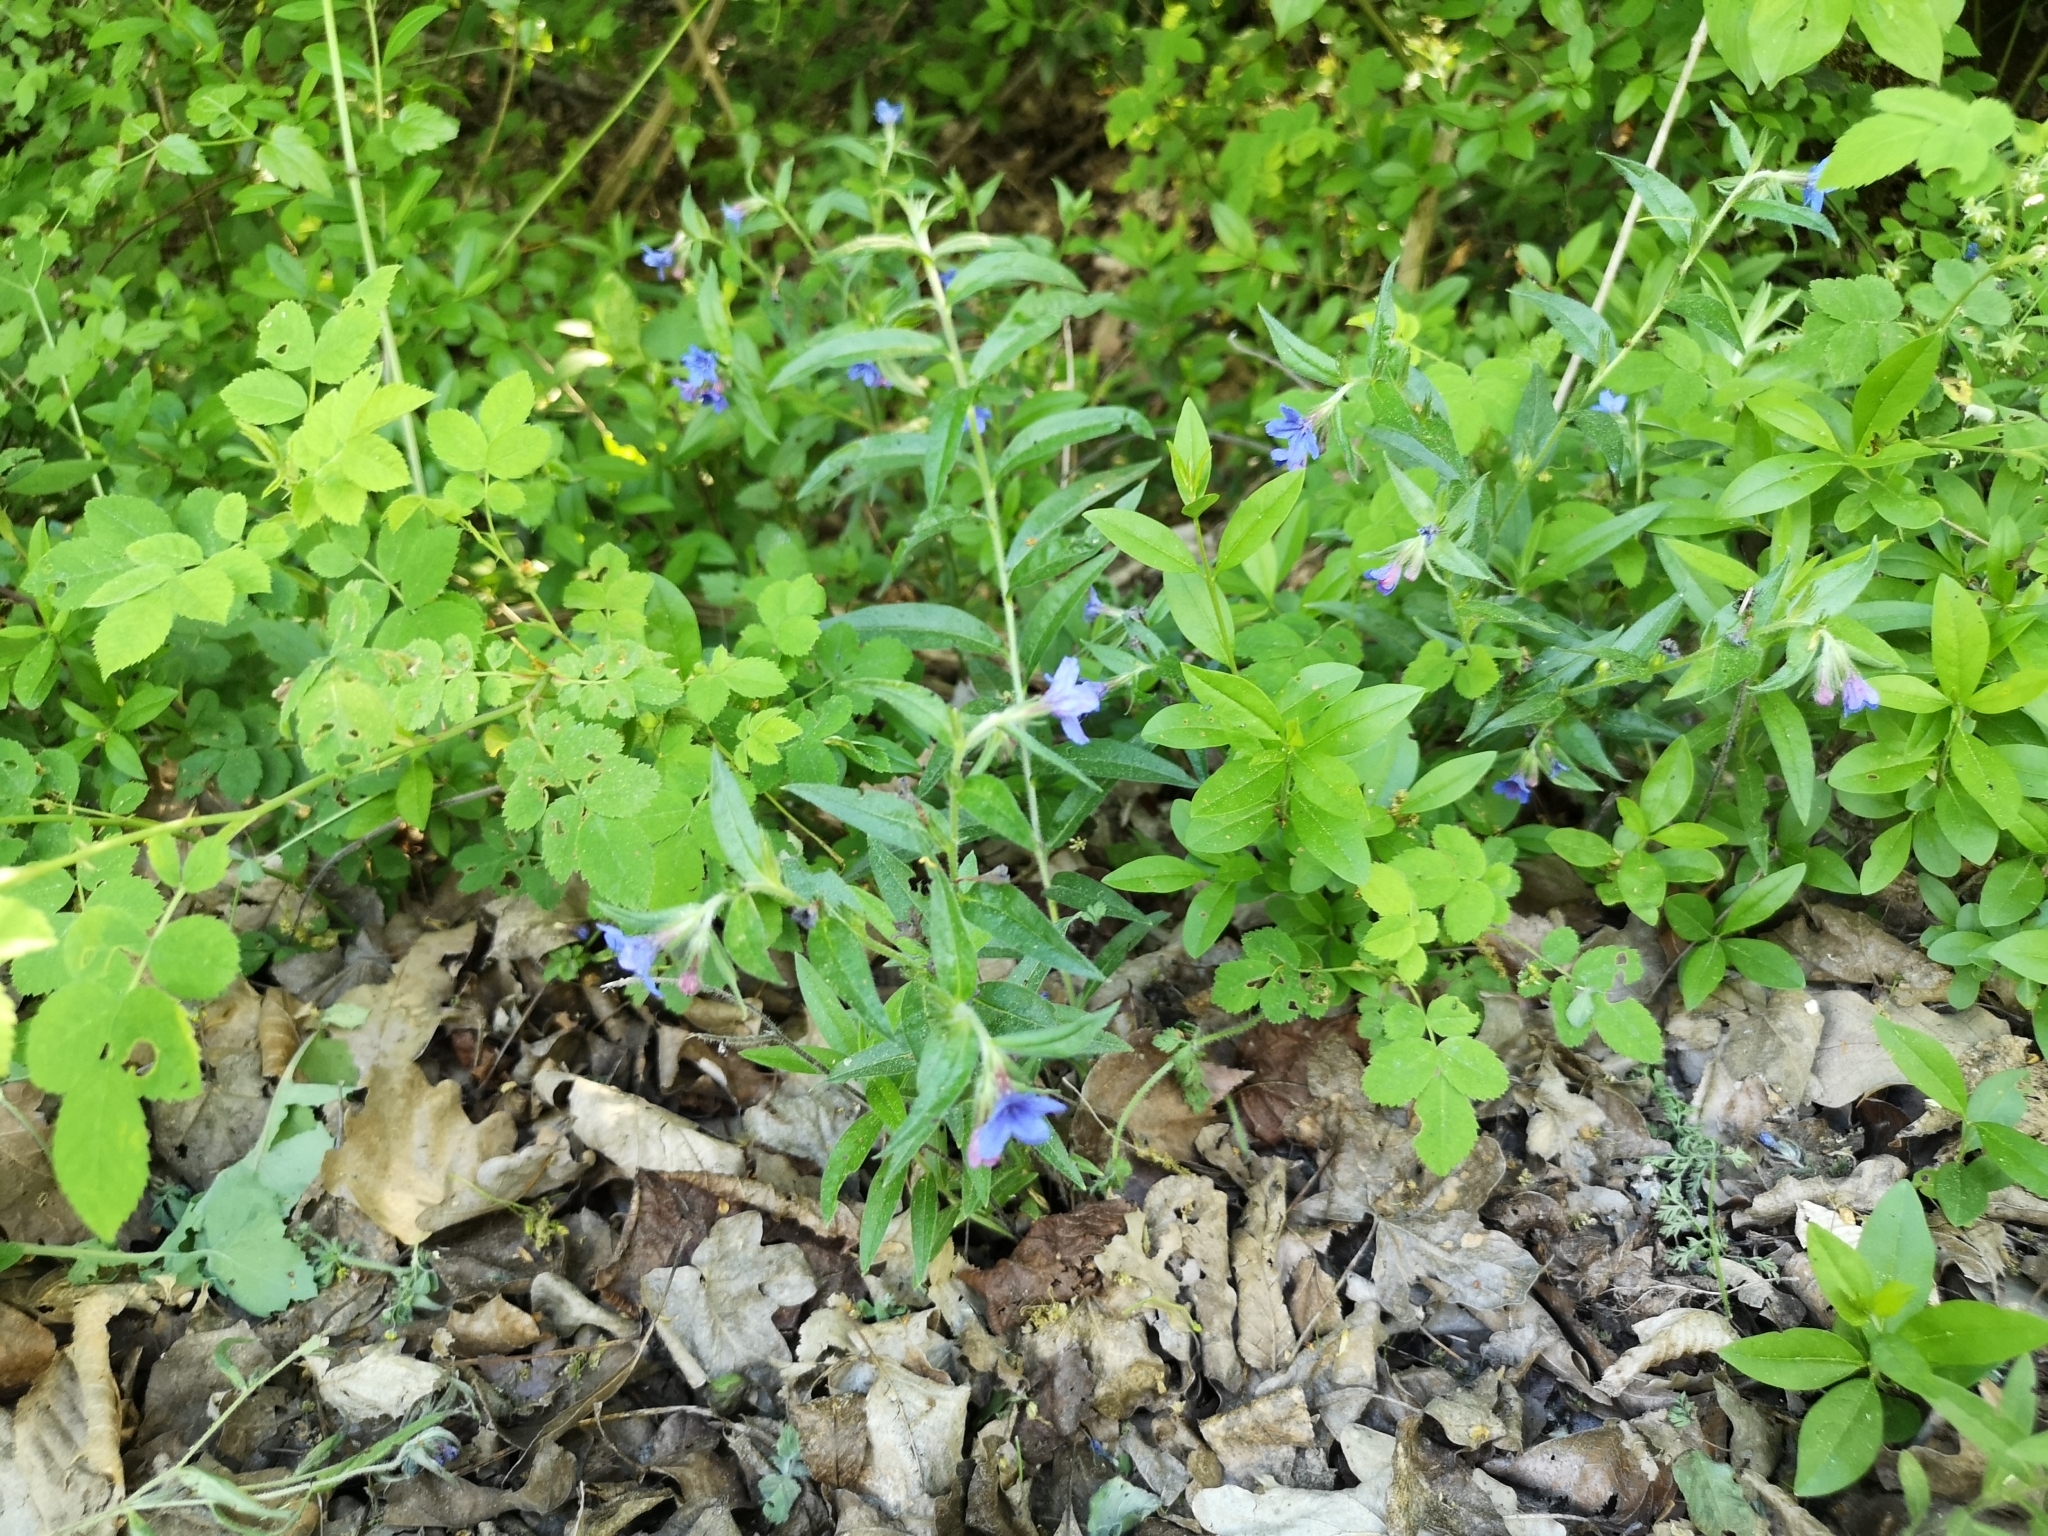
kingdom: Plantae
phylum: Tracheophyta
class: Magnoliopsida
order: Boraginales
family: Boraginaceae
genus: Aegonychon
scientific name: Aegonychon purpurocaeruleum
